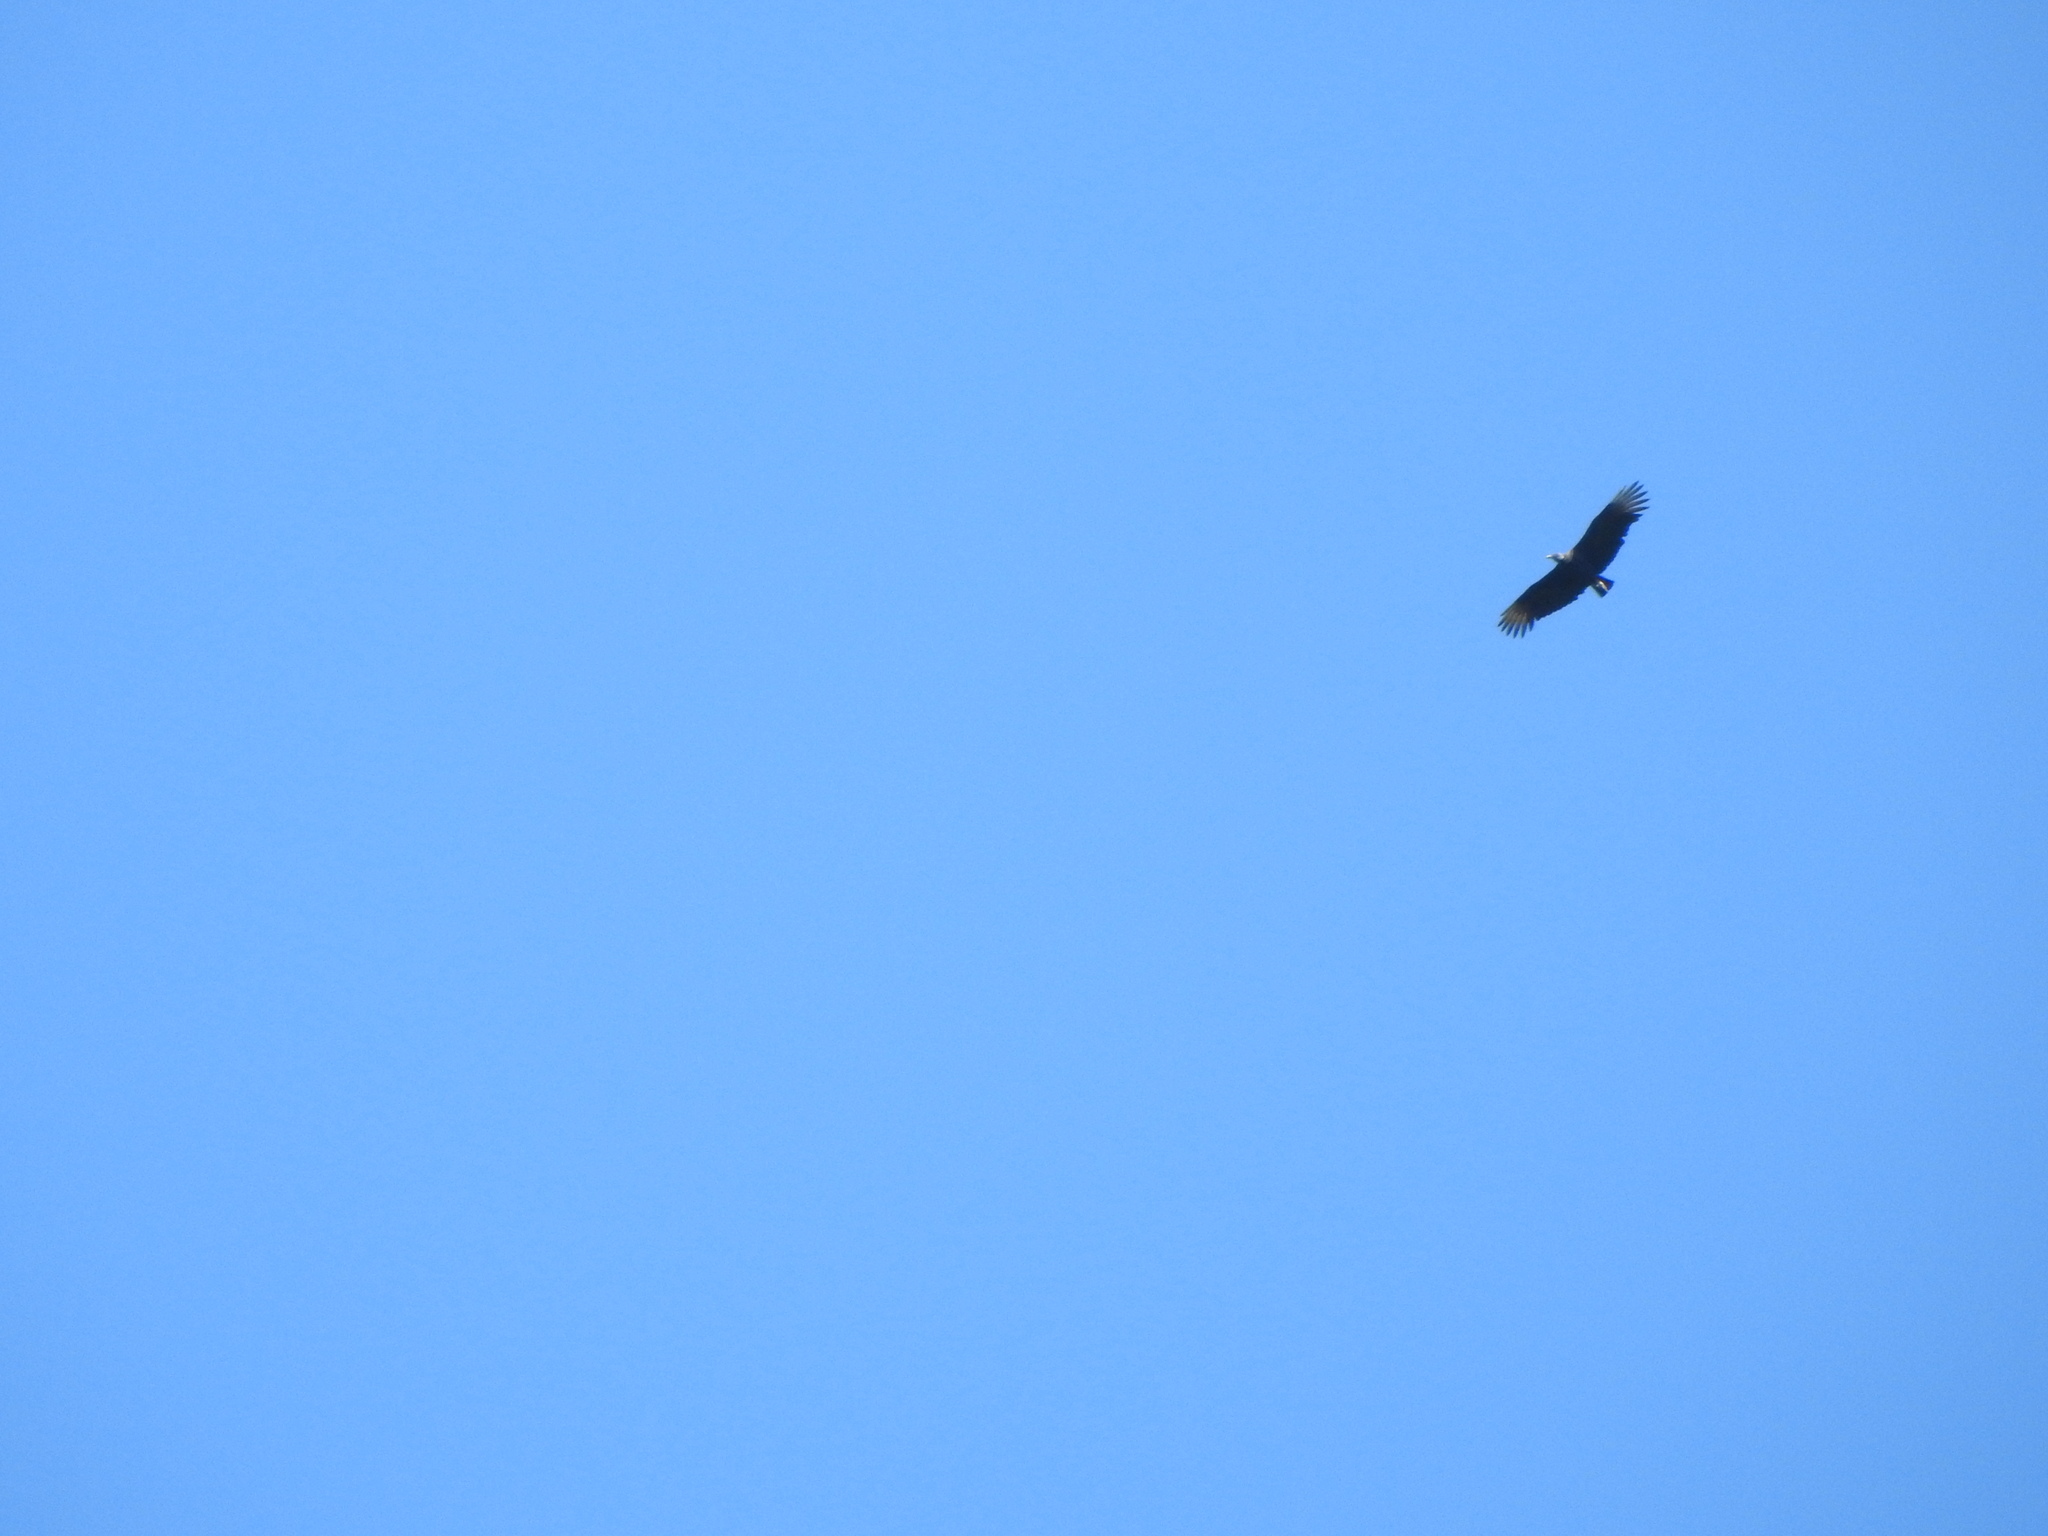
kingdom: Animalia
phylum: Chordata
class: Aves
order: Accipitriformes
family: Cathartidae
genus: Coragyps
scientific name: Coragyps atratus
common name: Black vulture
